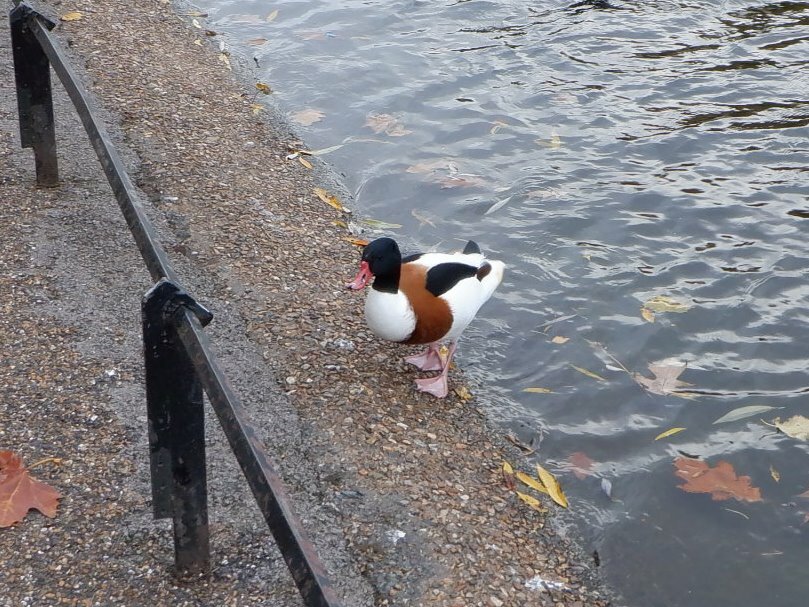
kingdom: Animalia
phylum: Chordata
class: Aves
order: Anseriformes
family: Anatidae
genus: Tadorna
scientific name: Tadorna tadorna
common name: Common shelduck
